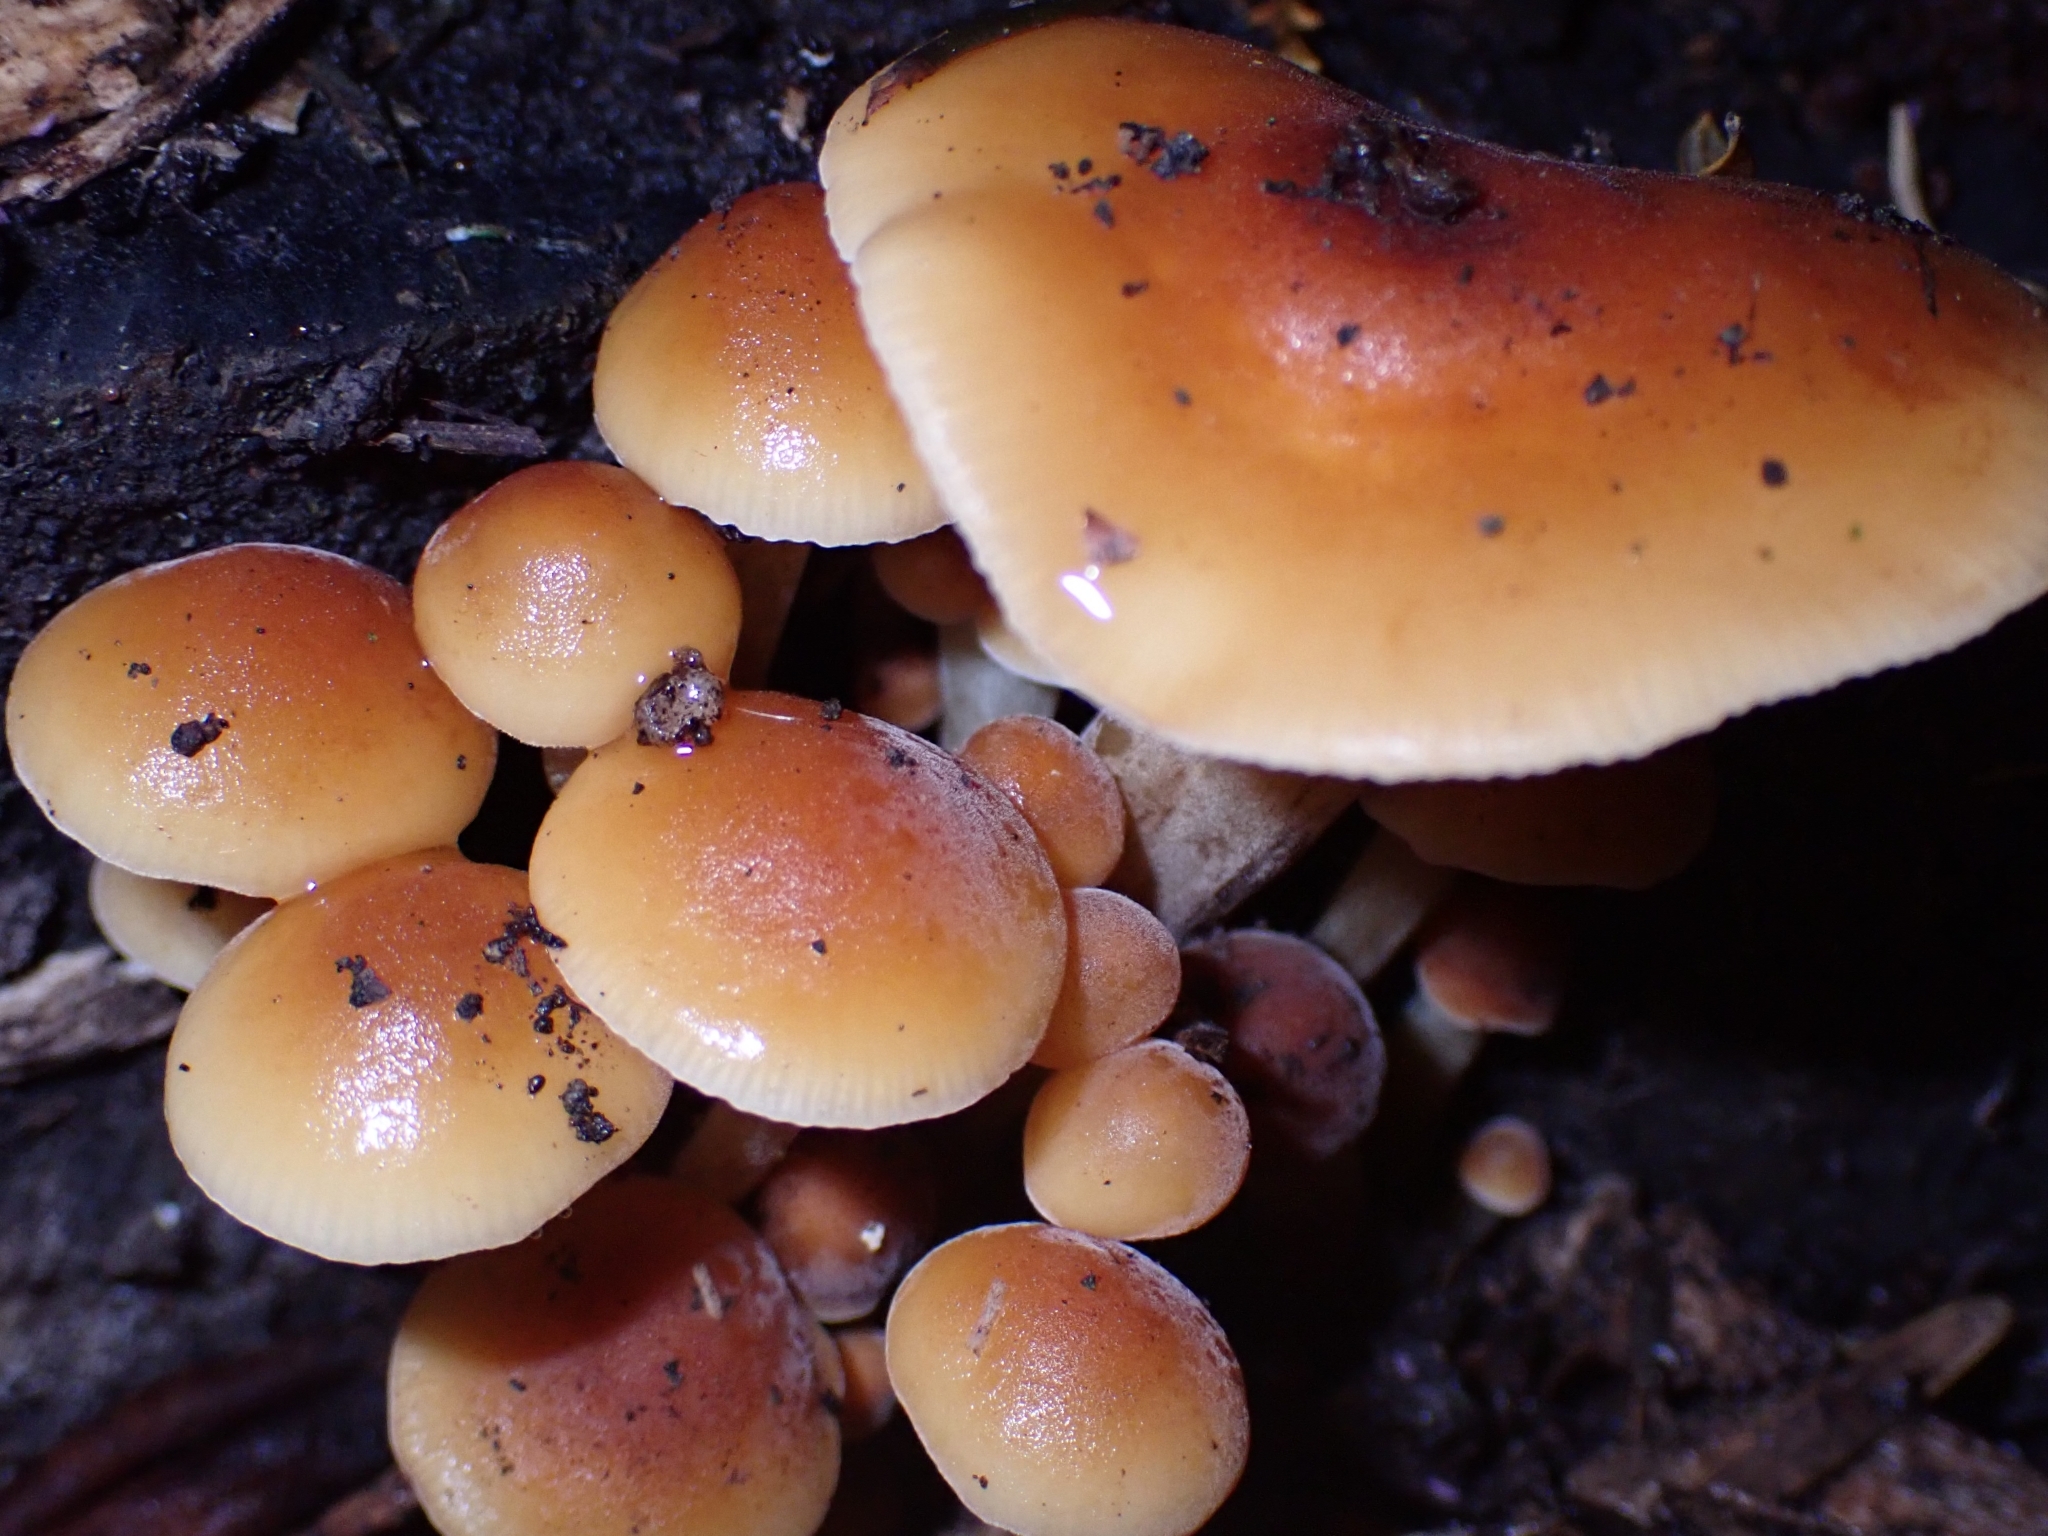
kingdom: Fungi
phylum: Basidiomycota
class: Agaricomycetes
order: Agaricales
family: Physalacriaceae
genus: Flammulina
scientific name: Flammulina velutipes
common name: Velvet shank
